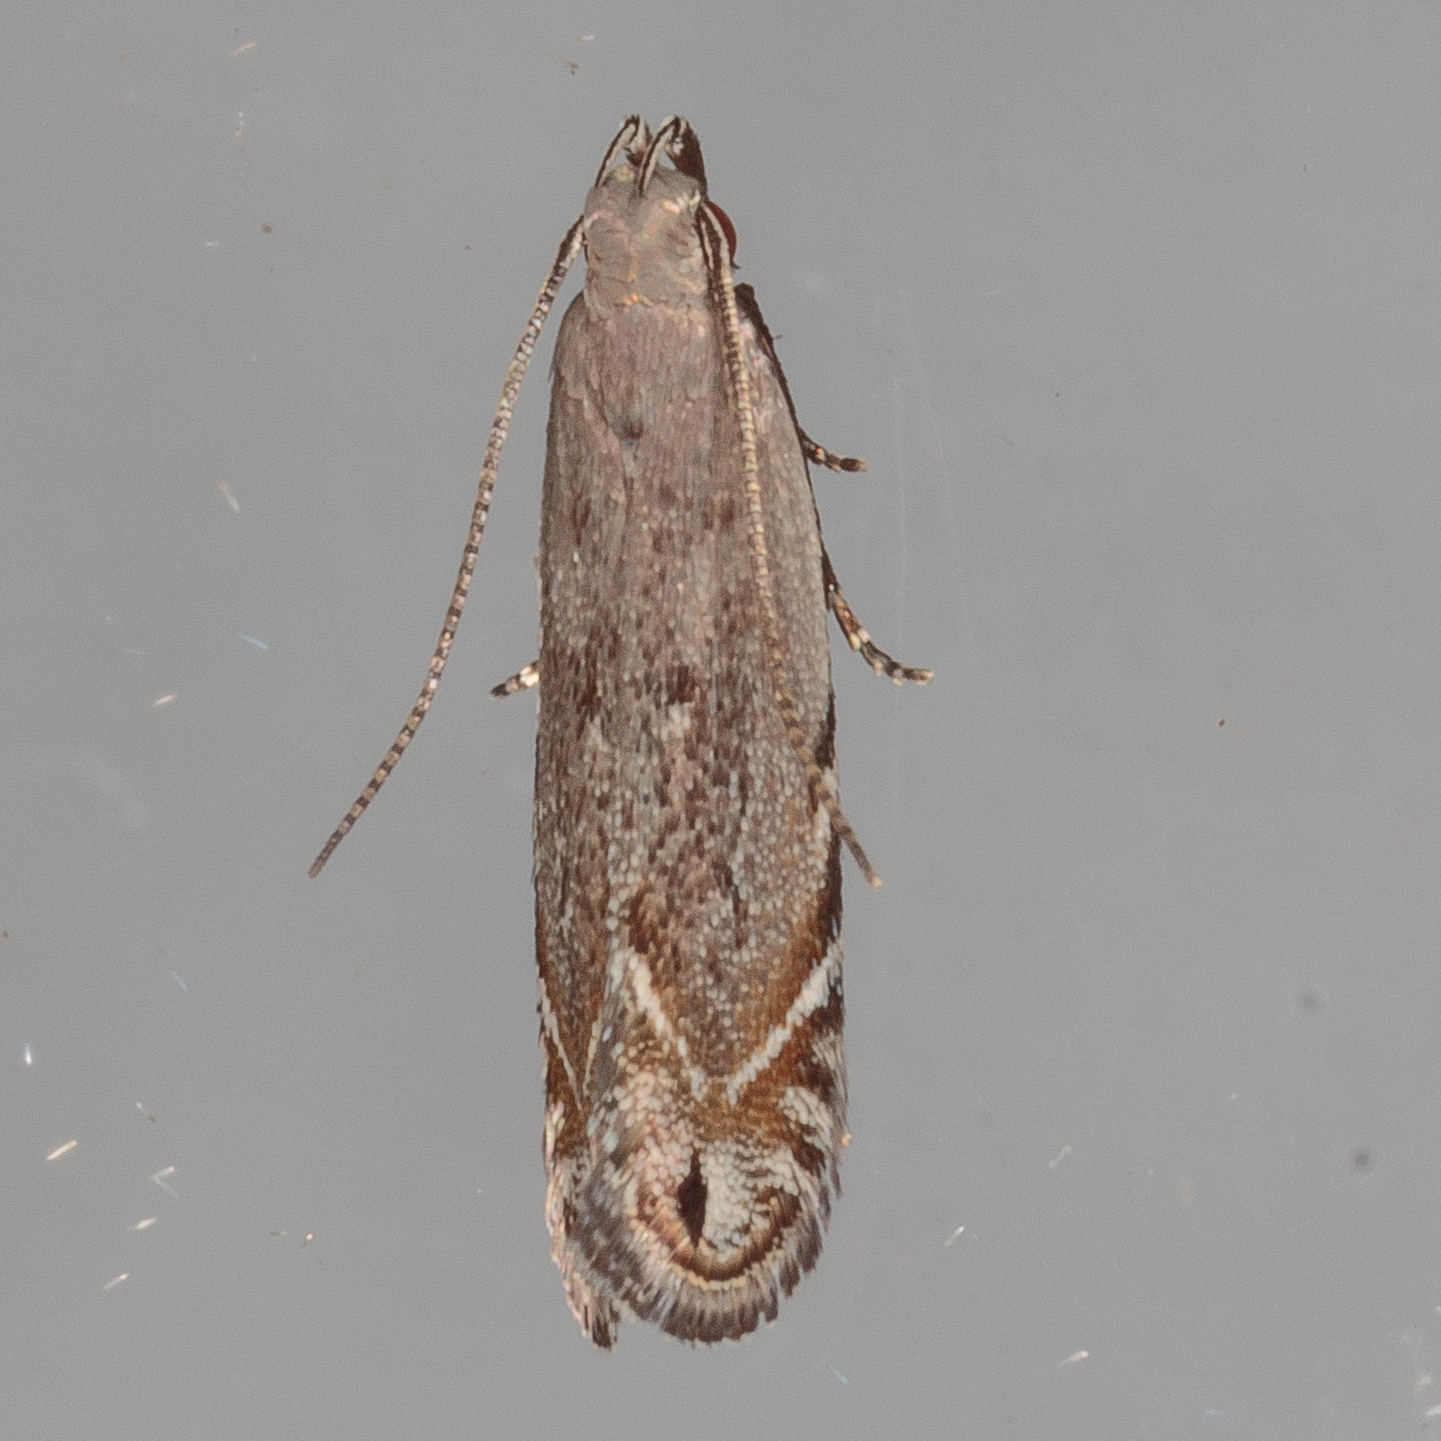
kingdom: Animalia
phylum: Arthropoda
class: Insecta
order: Lepidoptera
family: Gelechiidae
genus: Battaristis
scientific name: Battaristis concinnusella
